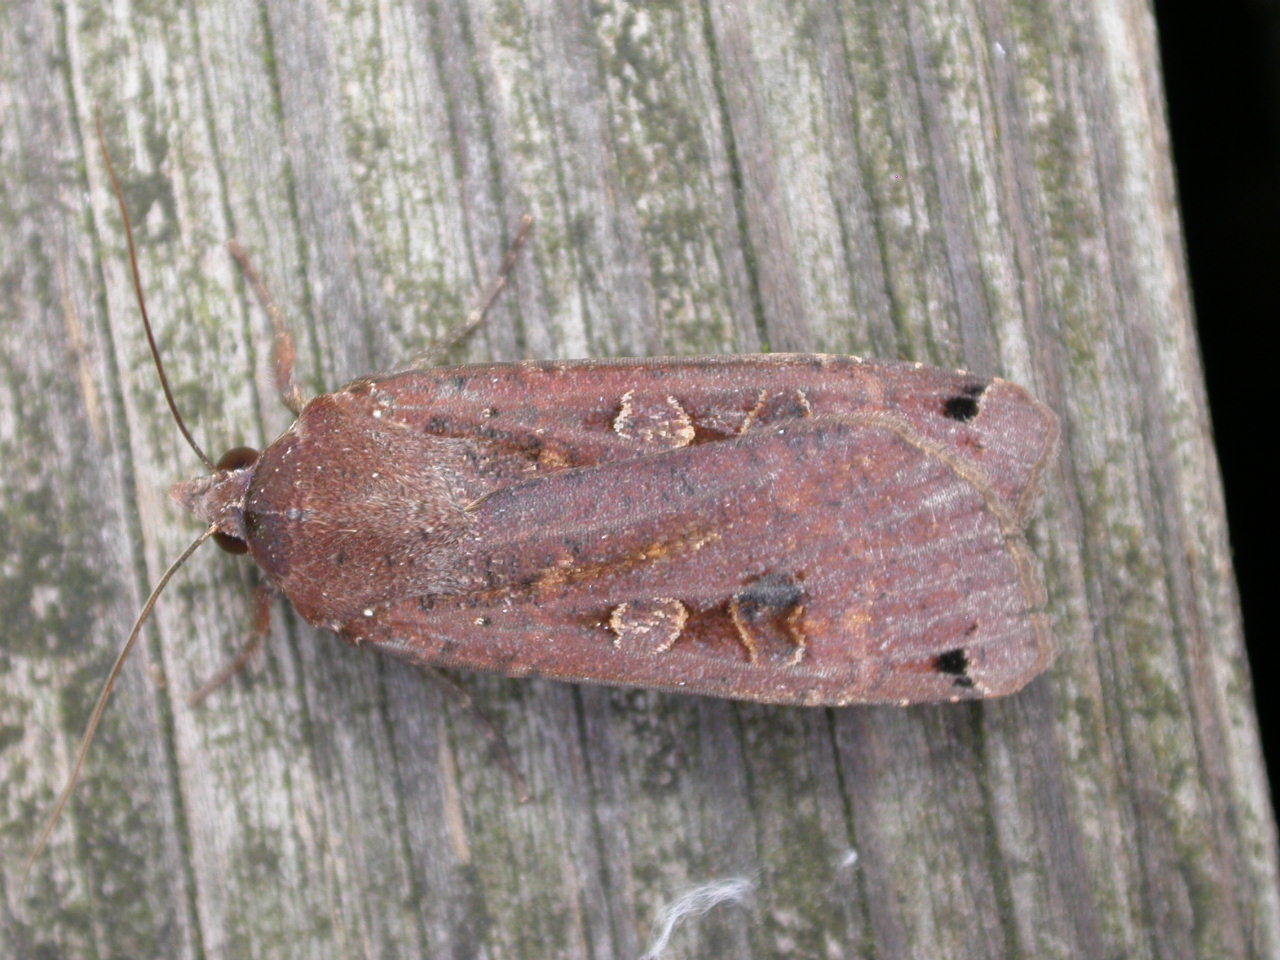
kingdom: Animalia
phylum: Arthropoda
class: Insecta
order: Lepidoptera
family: Noctuidae
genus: Noctua
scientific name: Noctua pronuba
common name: Large yellow underwing
